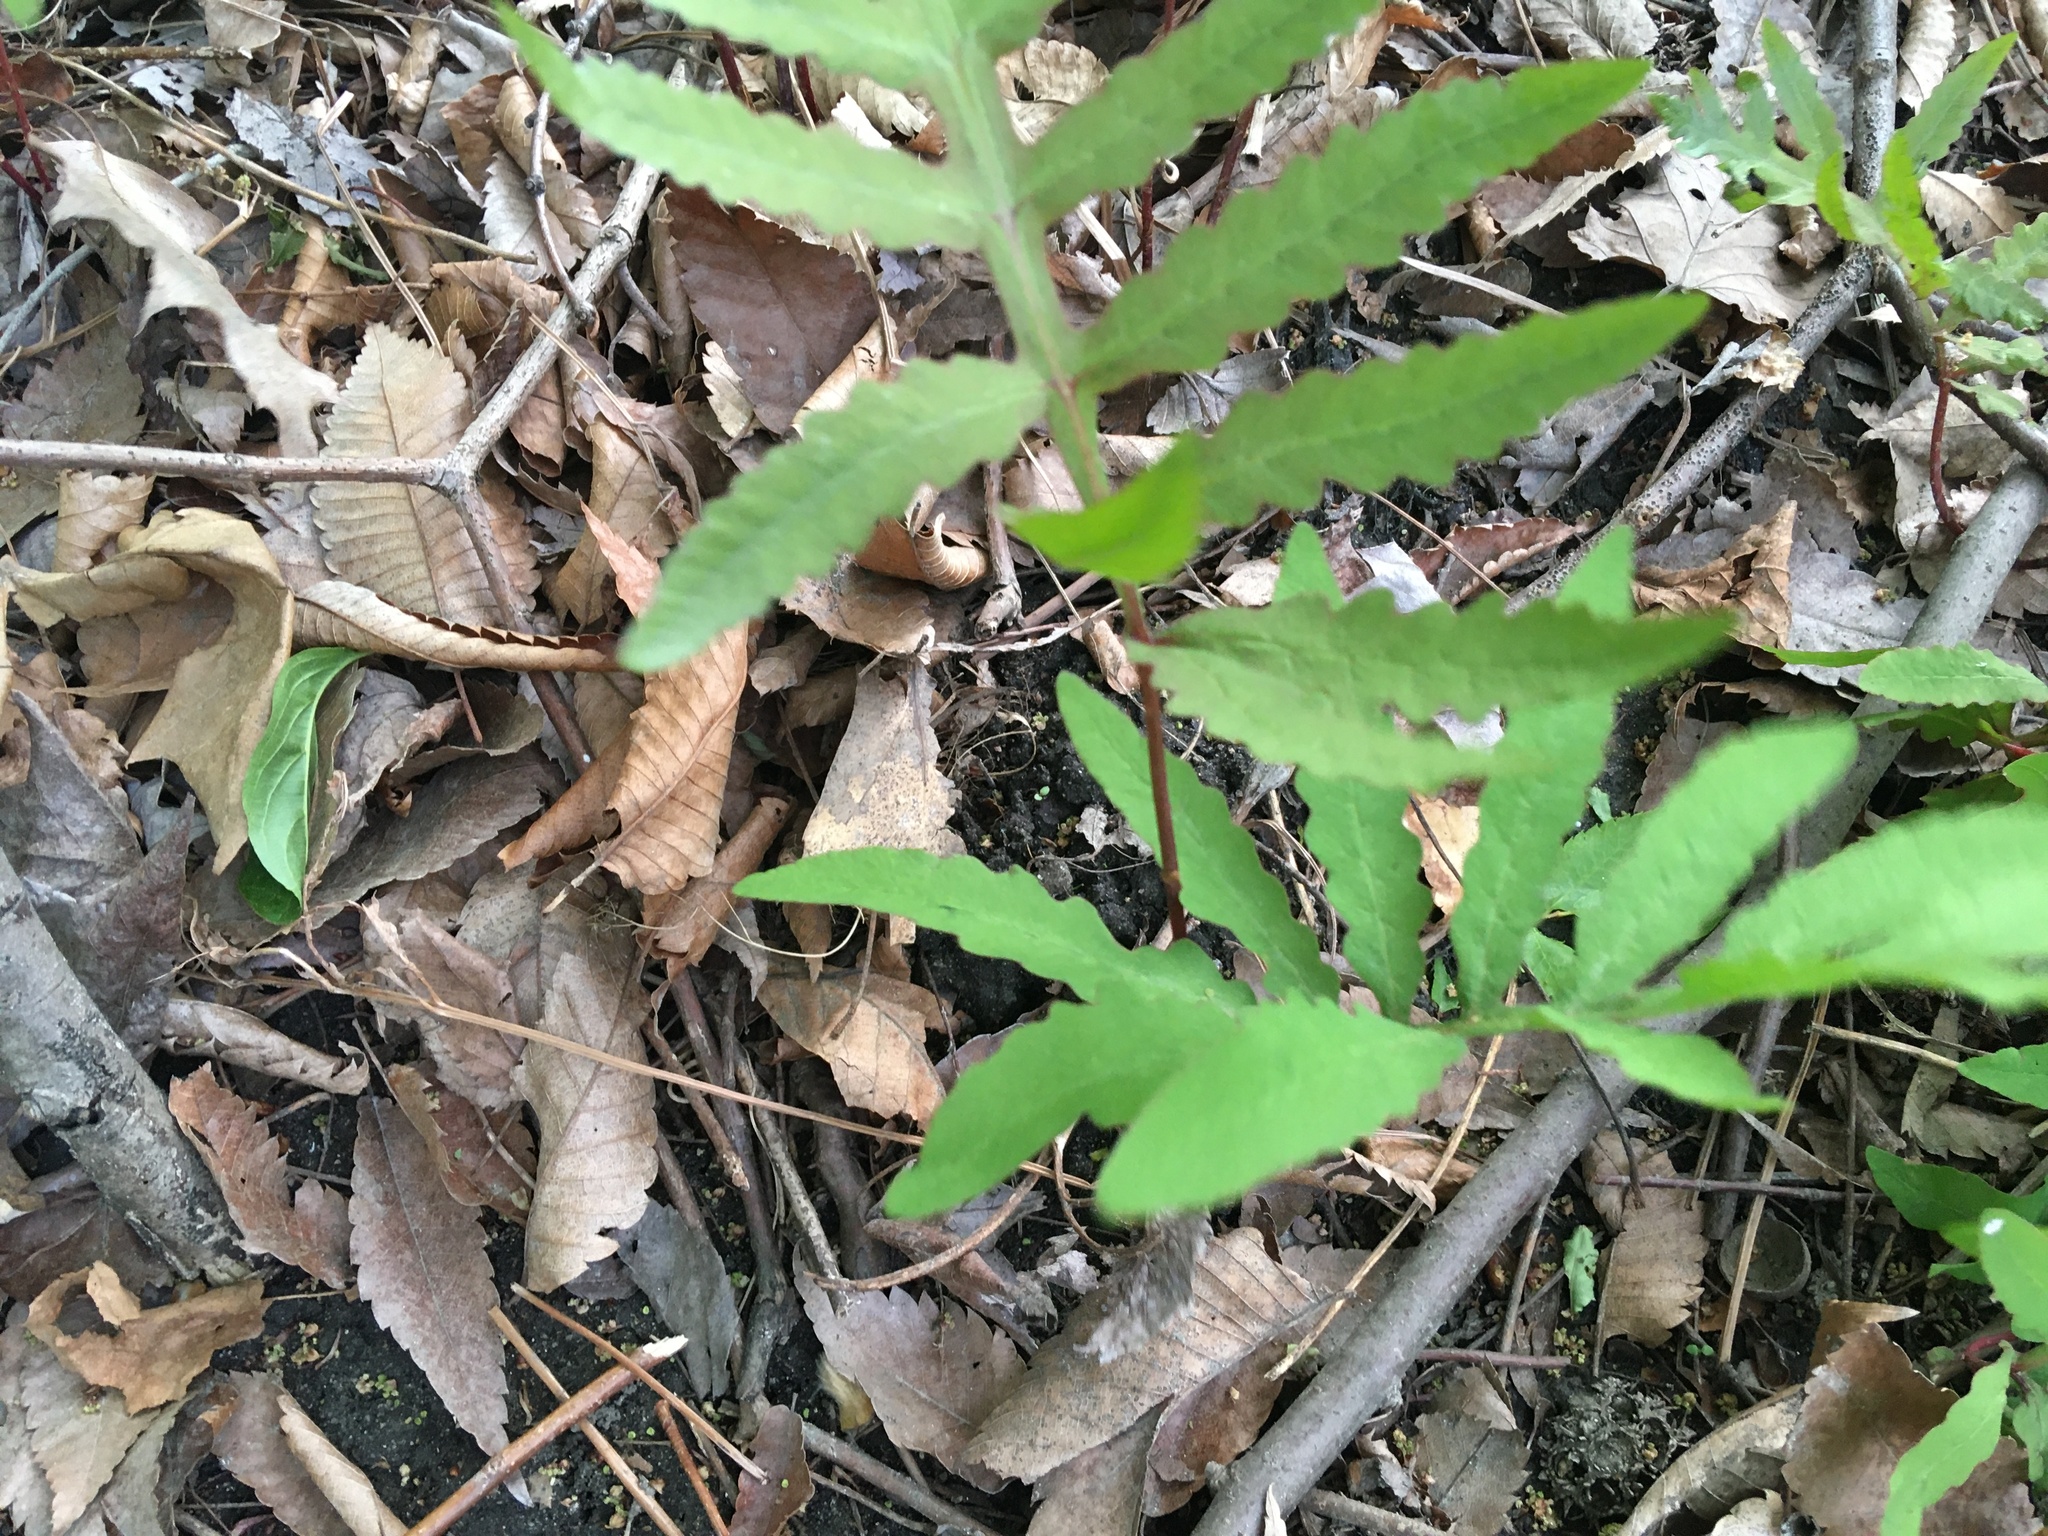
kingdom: Plantae
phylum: Tracheophyta
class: Polypodiopsida
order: Polypodiales
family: Onocleaceae
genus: Onoclea
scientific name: Onoclea sensibilis
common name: Sensitive fern
